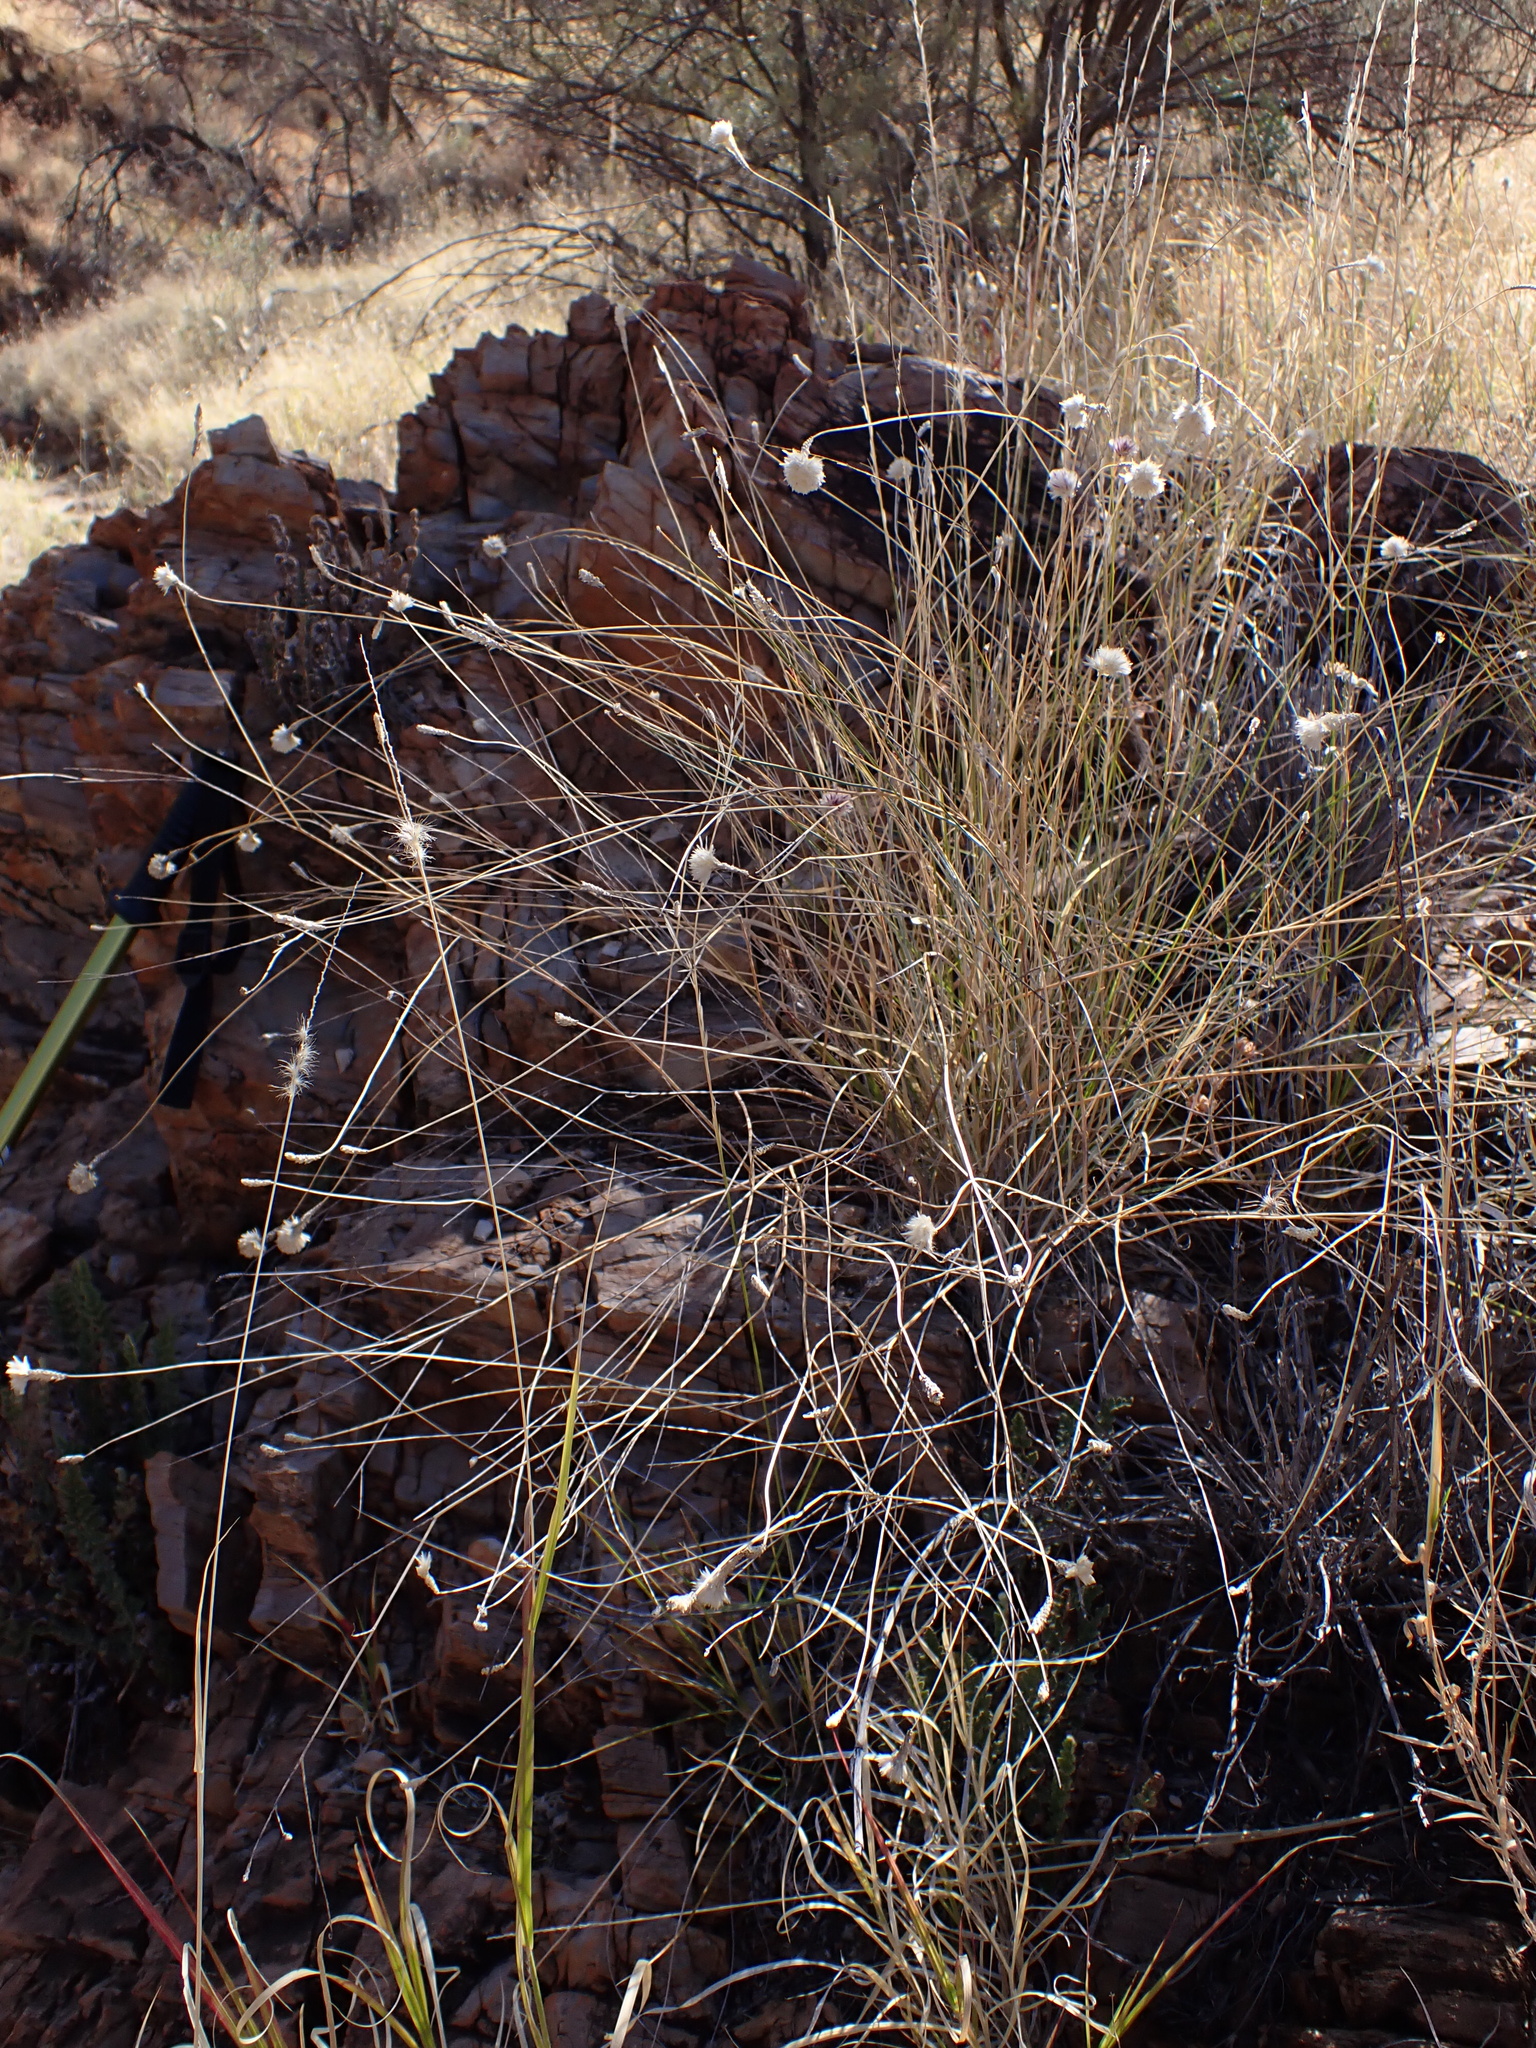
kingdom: Plantae
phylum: Tracheophyta
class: Magnoliopsida
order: Caryophyllales
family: Amaranthaceae
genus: Ptilotus
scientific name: Ptilotus schwartzii
